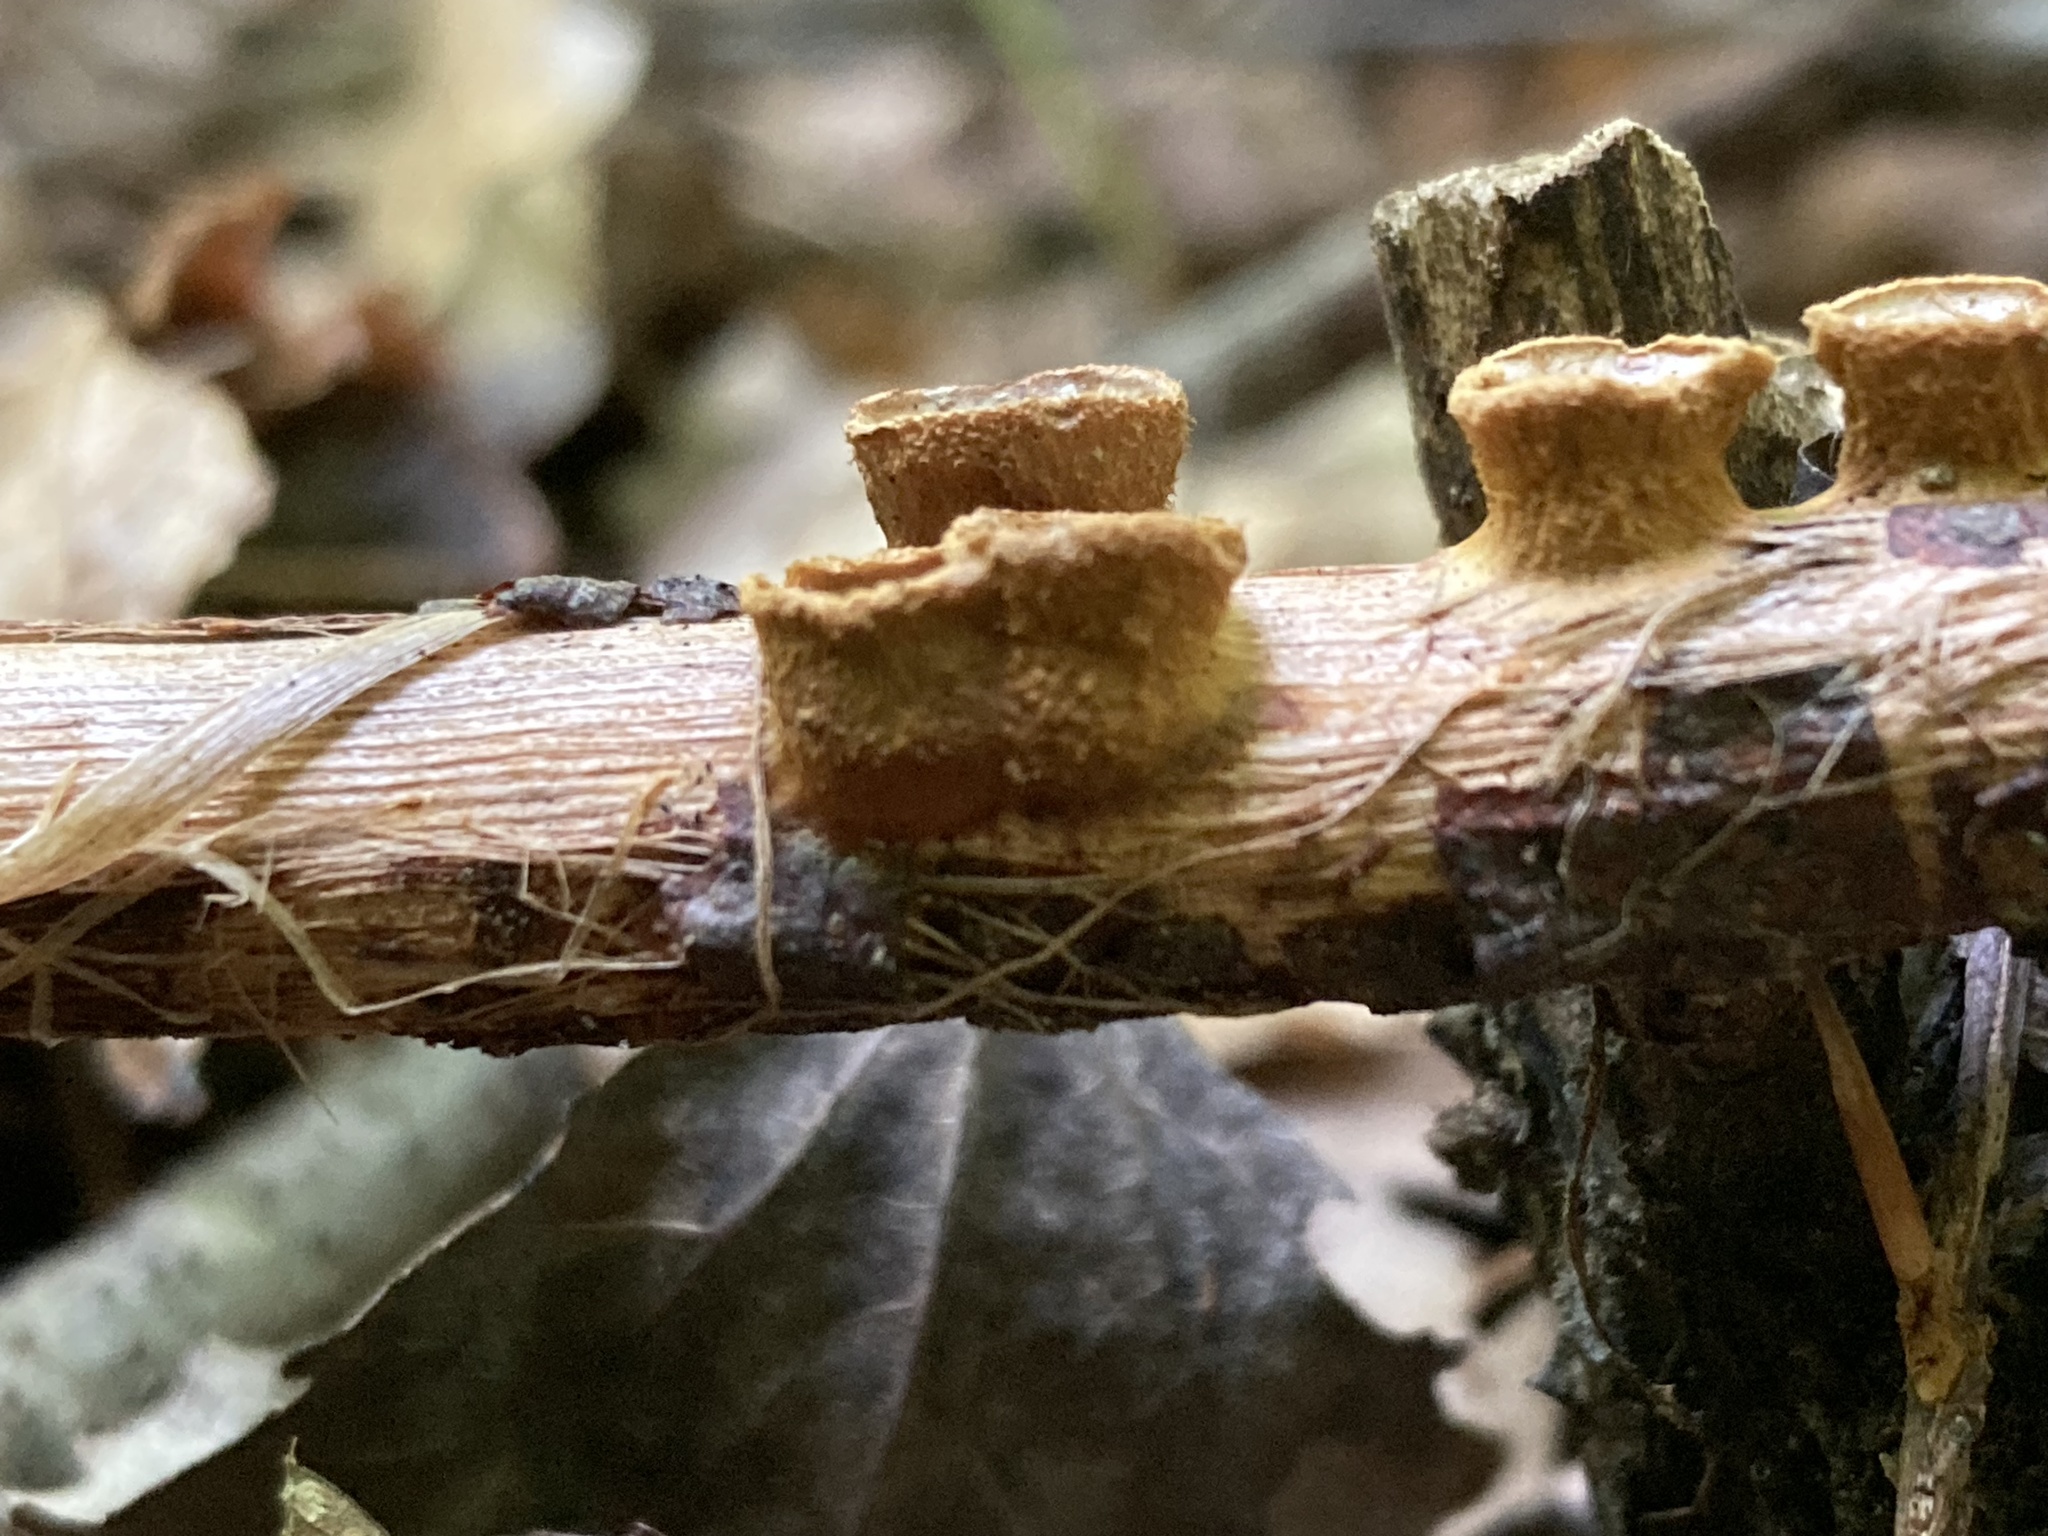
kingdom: Fungi
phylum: Basidiomycota
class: Agaricomycetes
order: Agaricales
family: Nidulariaceae
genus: Crucibulum
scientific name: Crucibulum laeve
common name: Common bird's nest
